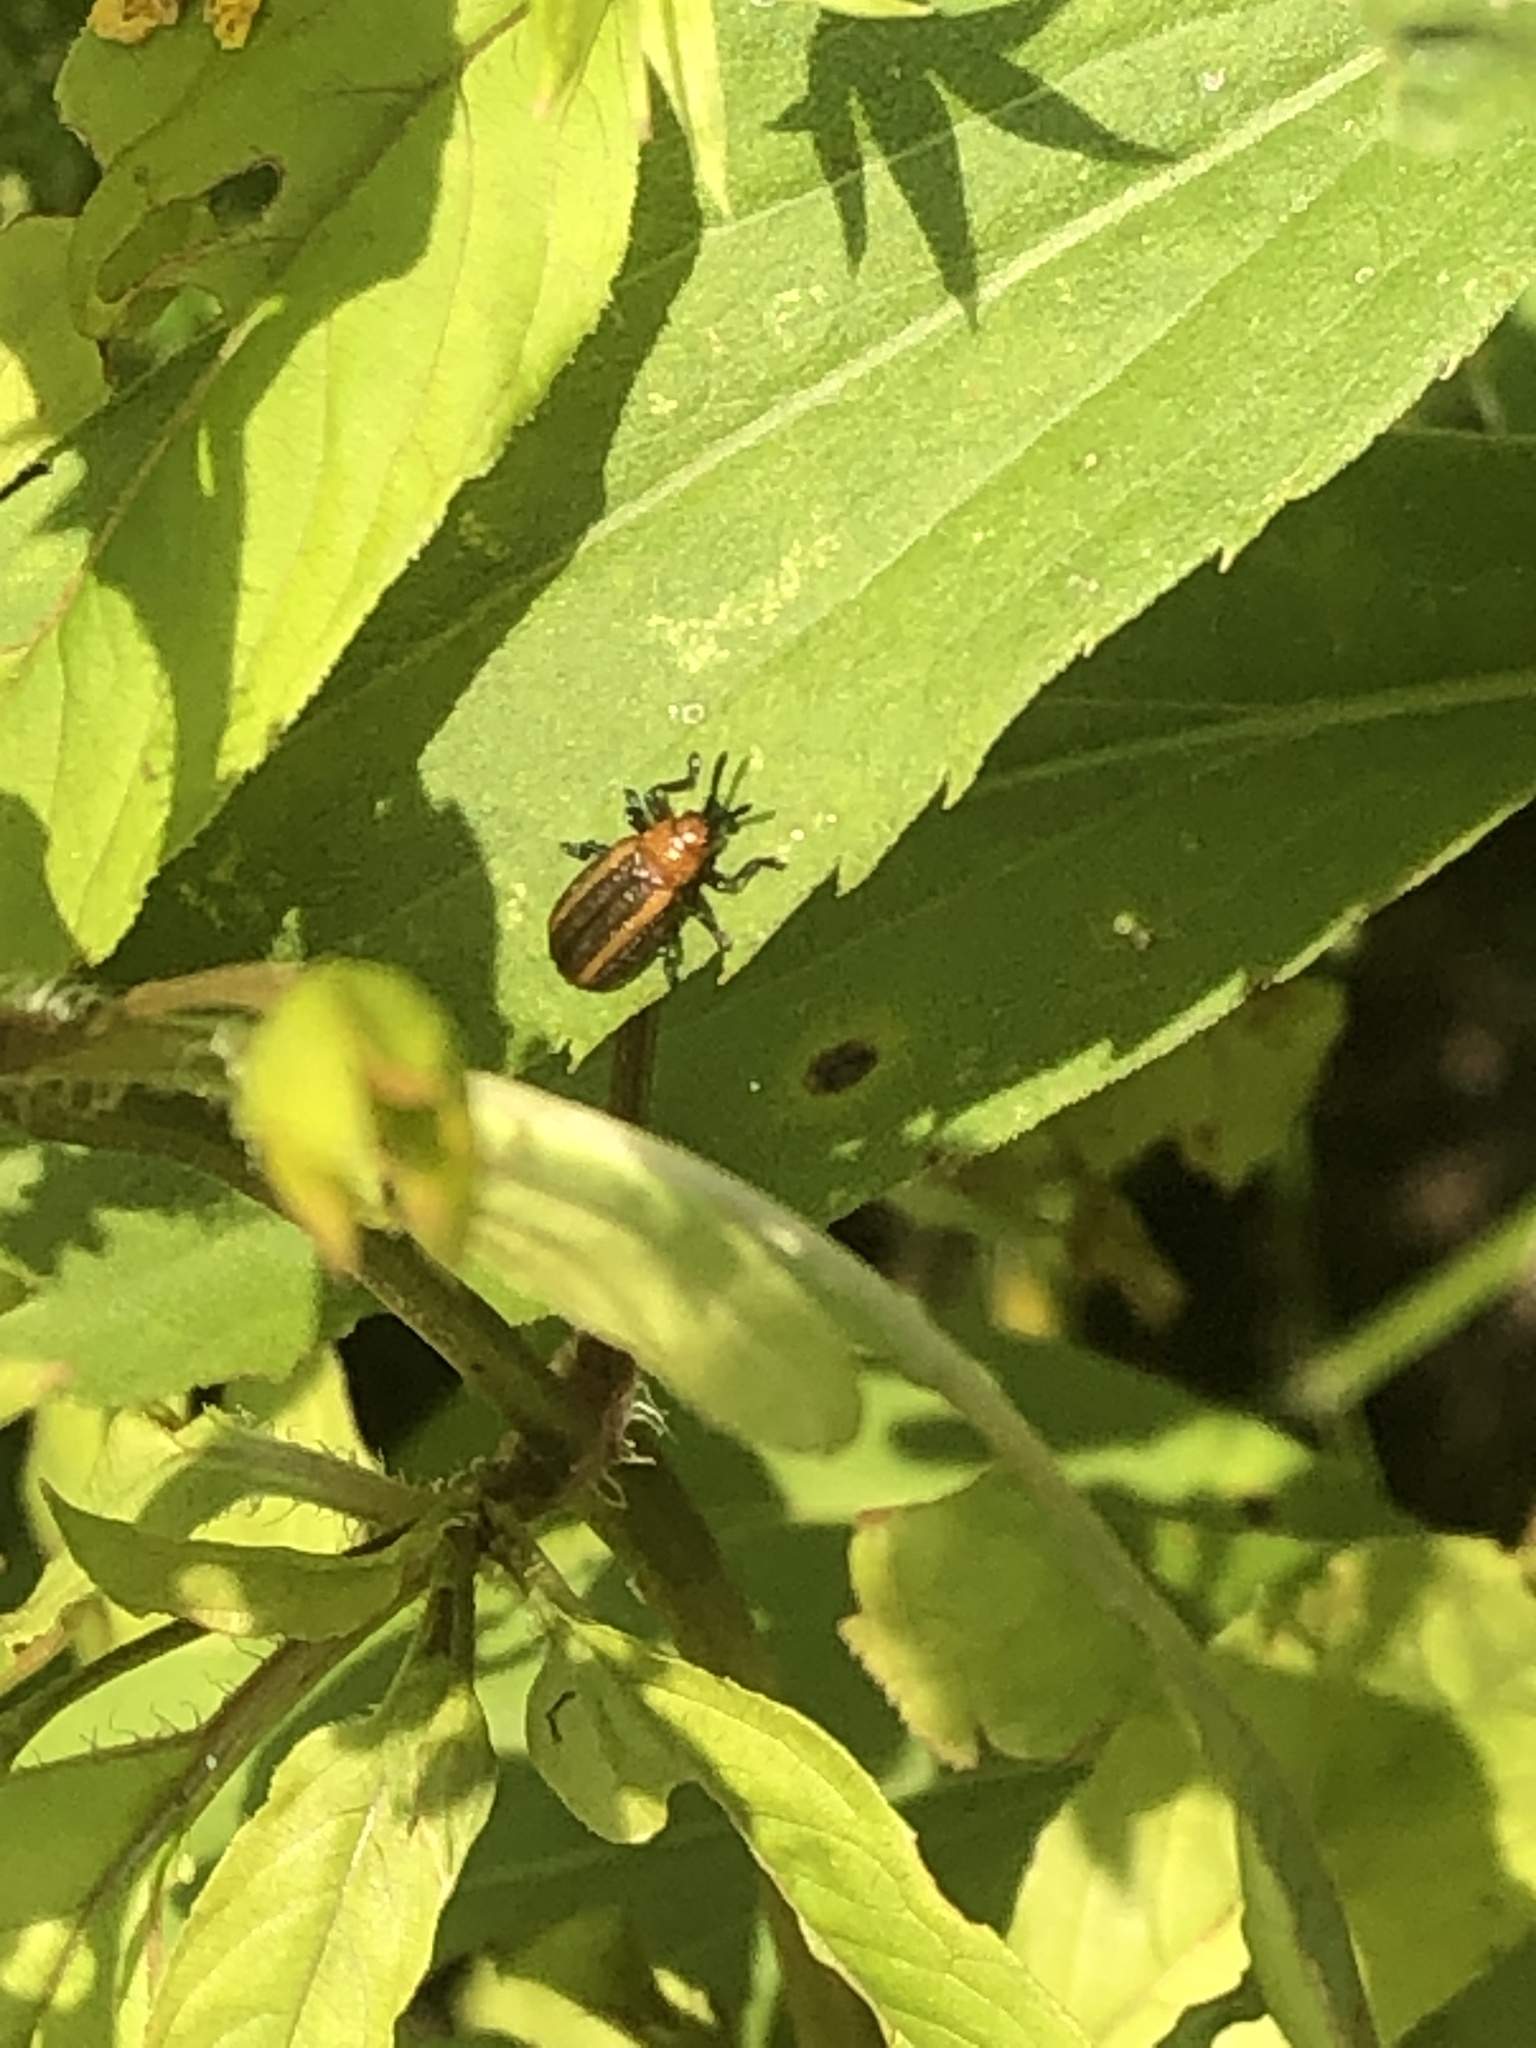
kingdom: Animalia
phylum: Arthropoda
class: Insecta
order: Coleoptera
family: Chrysomelidae
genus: Microrhopala
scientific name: Microrhopala vittata
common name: Goldenrod leaf miner beetle
